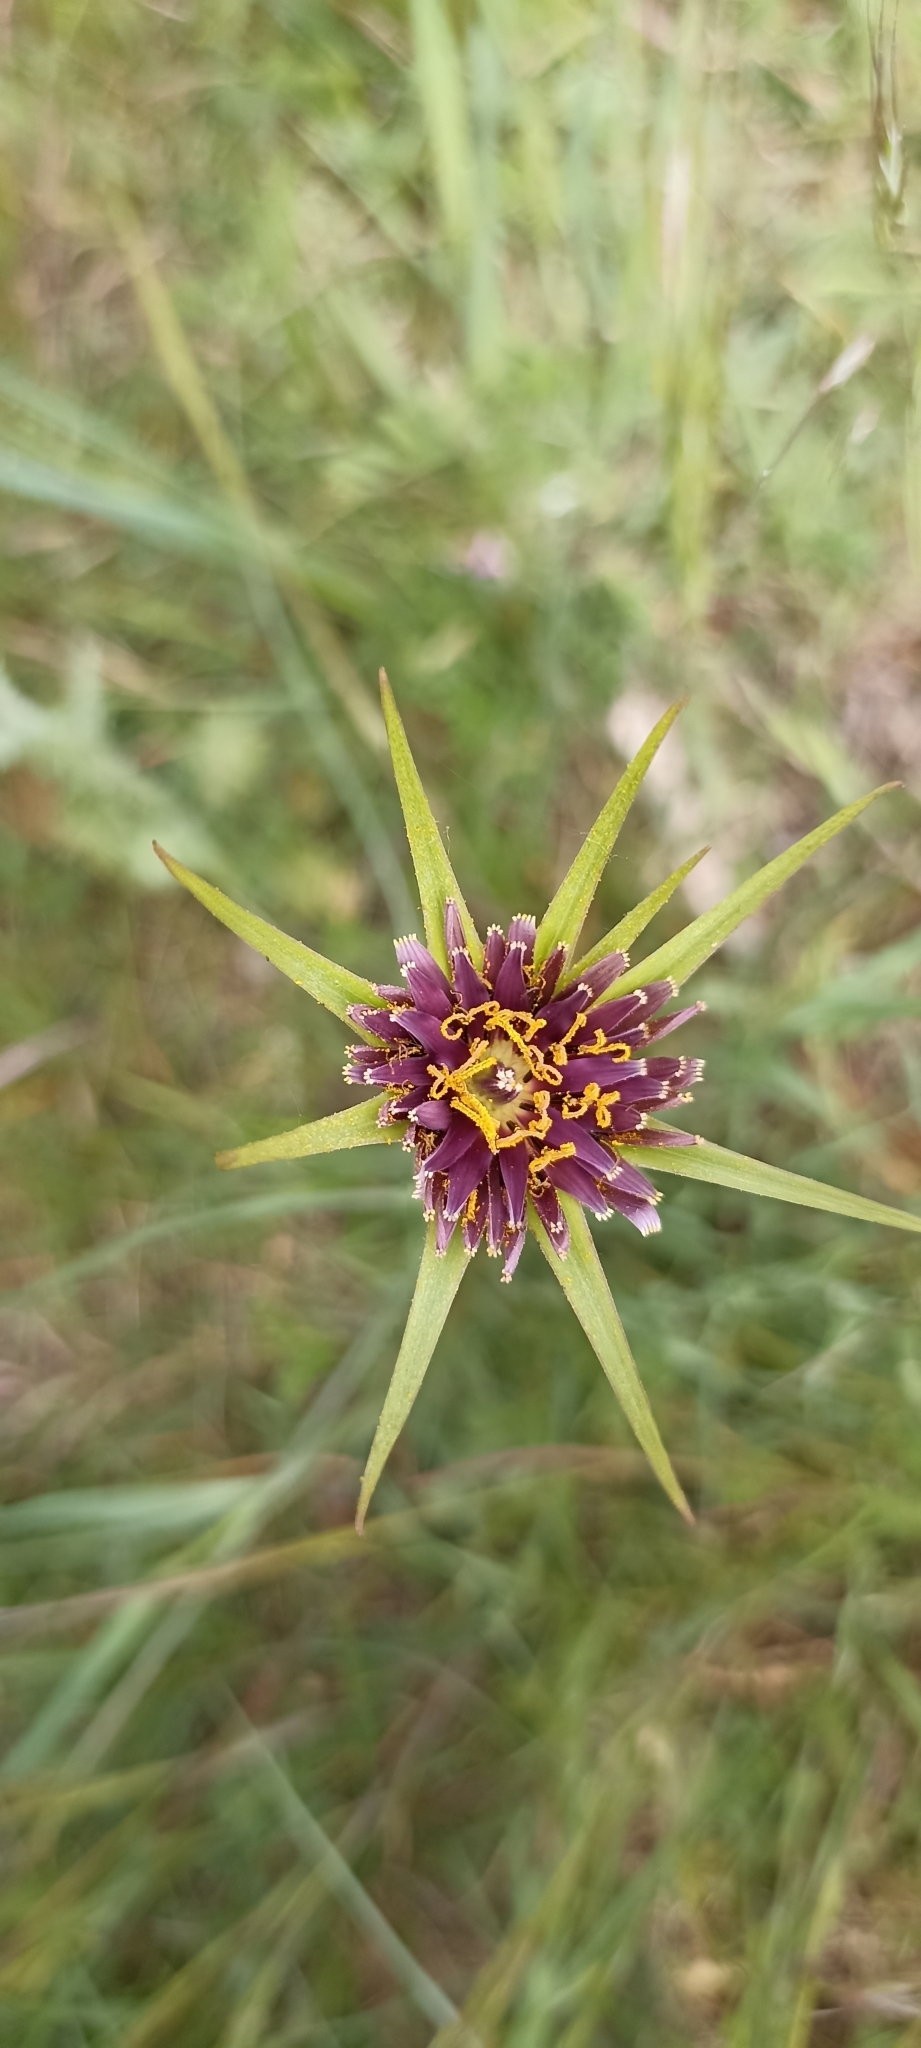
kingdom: Plantae
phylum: Tracheophyta
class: Magnoliopsida
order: Asterales
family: Asteraceae
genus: Tragopogon
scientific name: Tragopogon porrifolius
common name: Salsify
